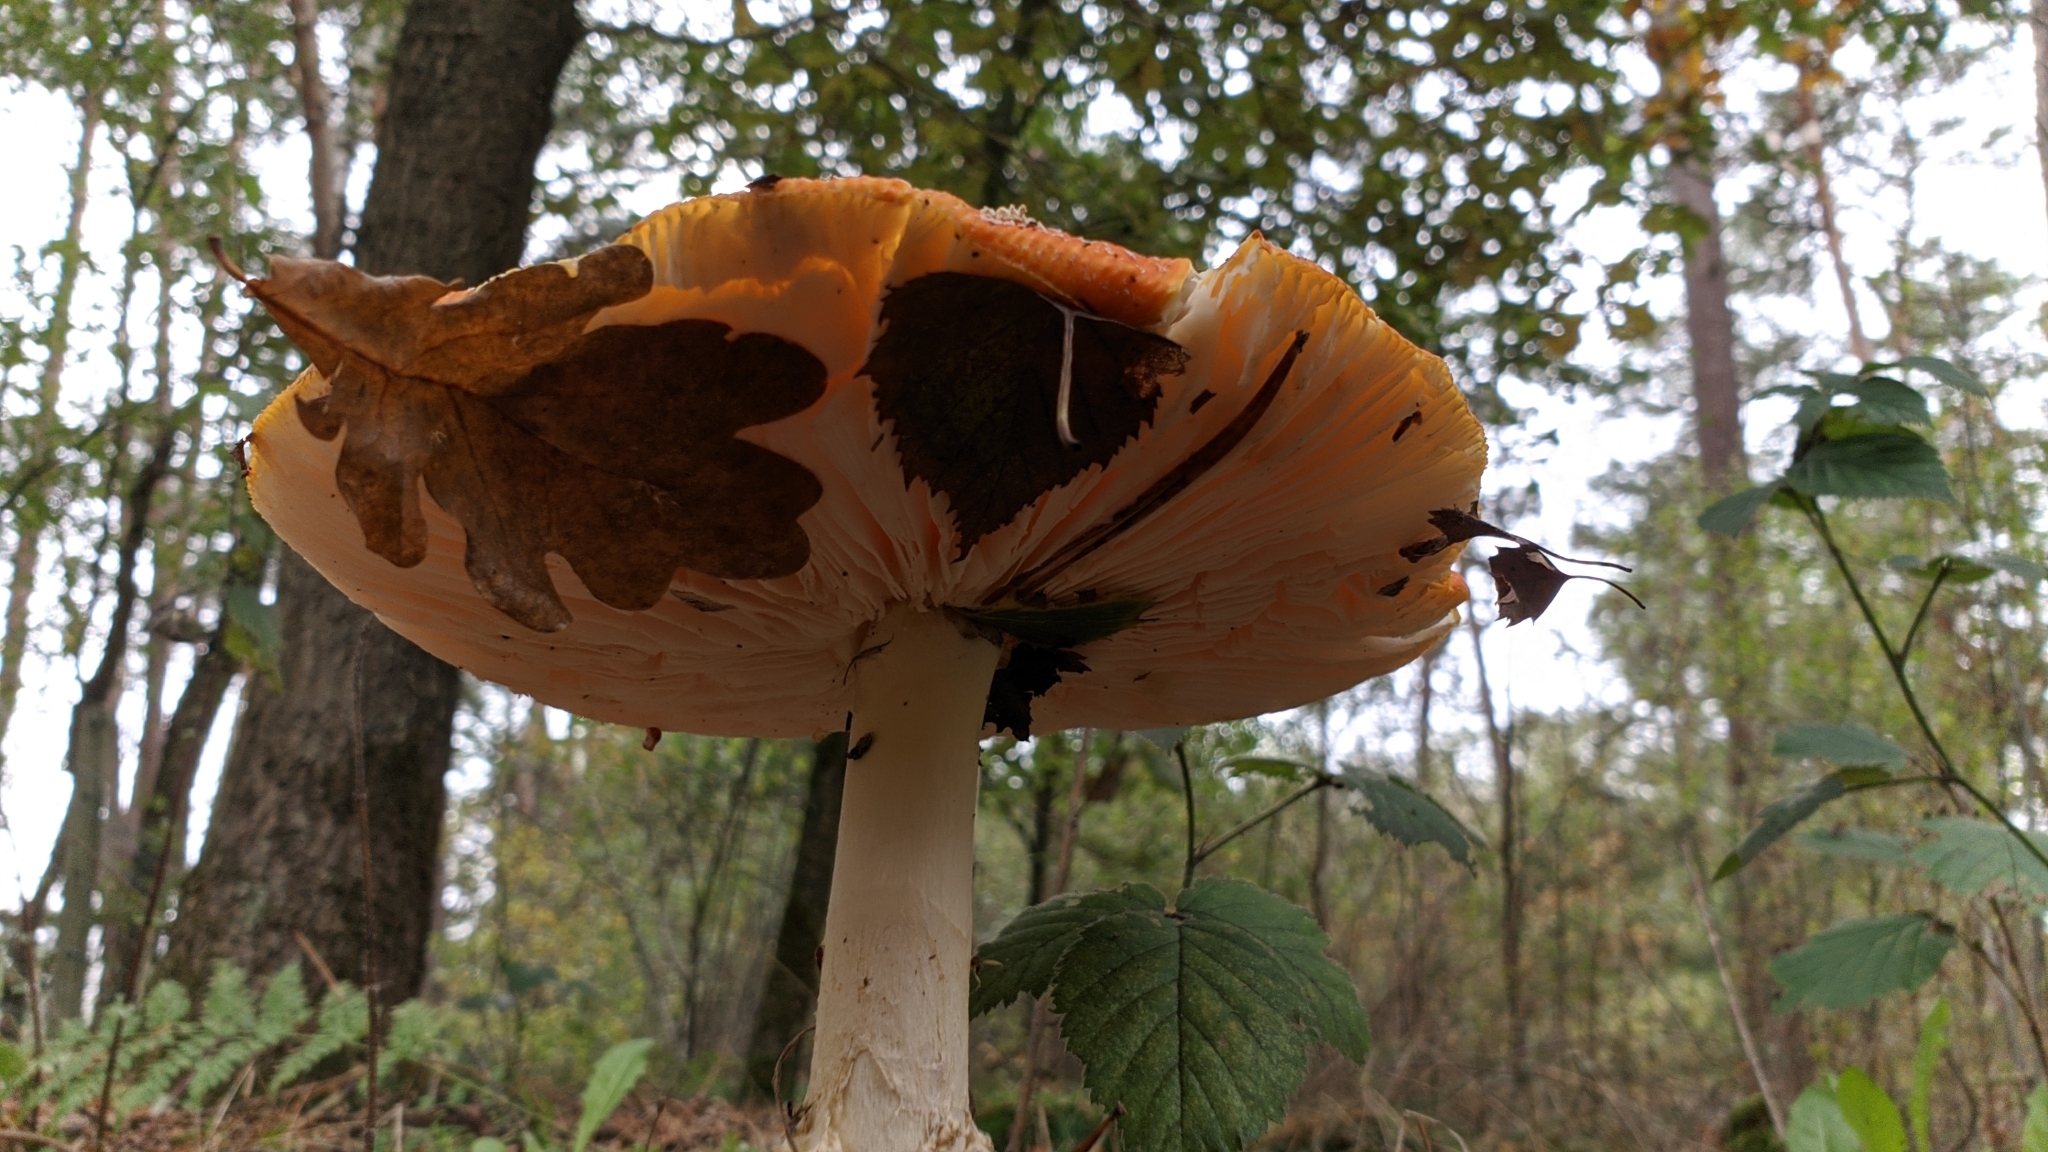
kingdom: Fungi
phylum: Basidiomycota
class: Agaricomycetes
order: Agaricales
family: Amanitaceae
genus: Amanita
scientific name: Amanita muscaria
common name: Fly agaric
